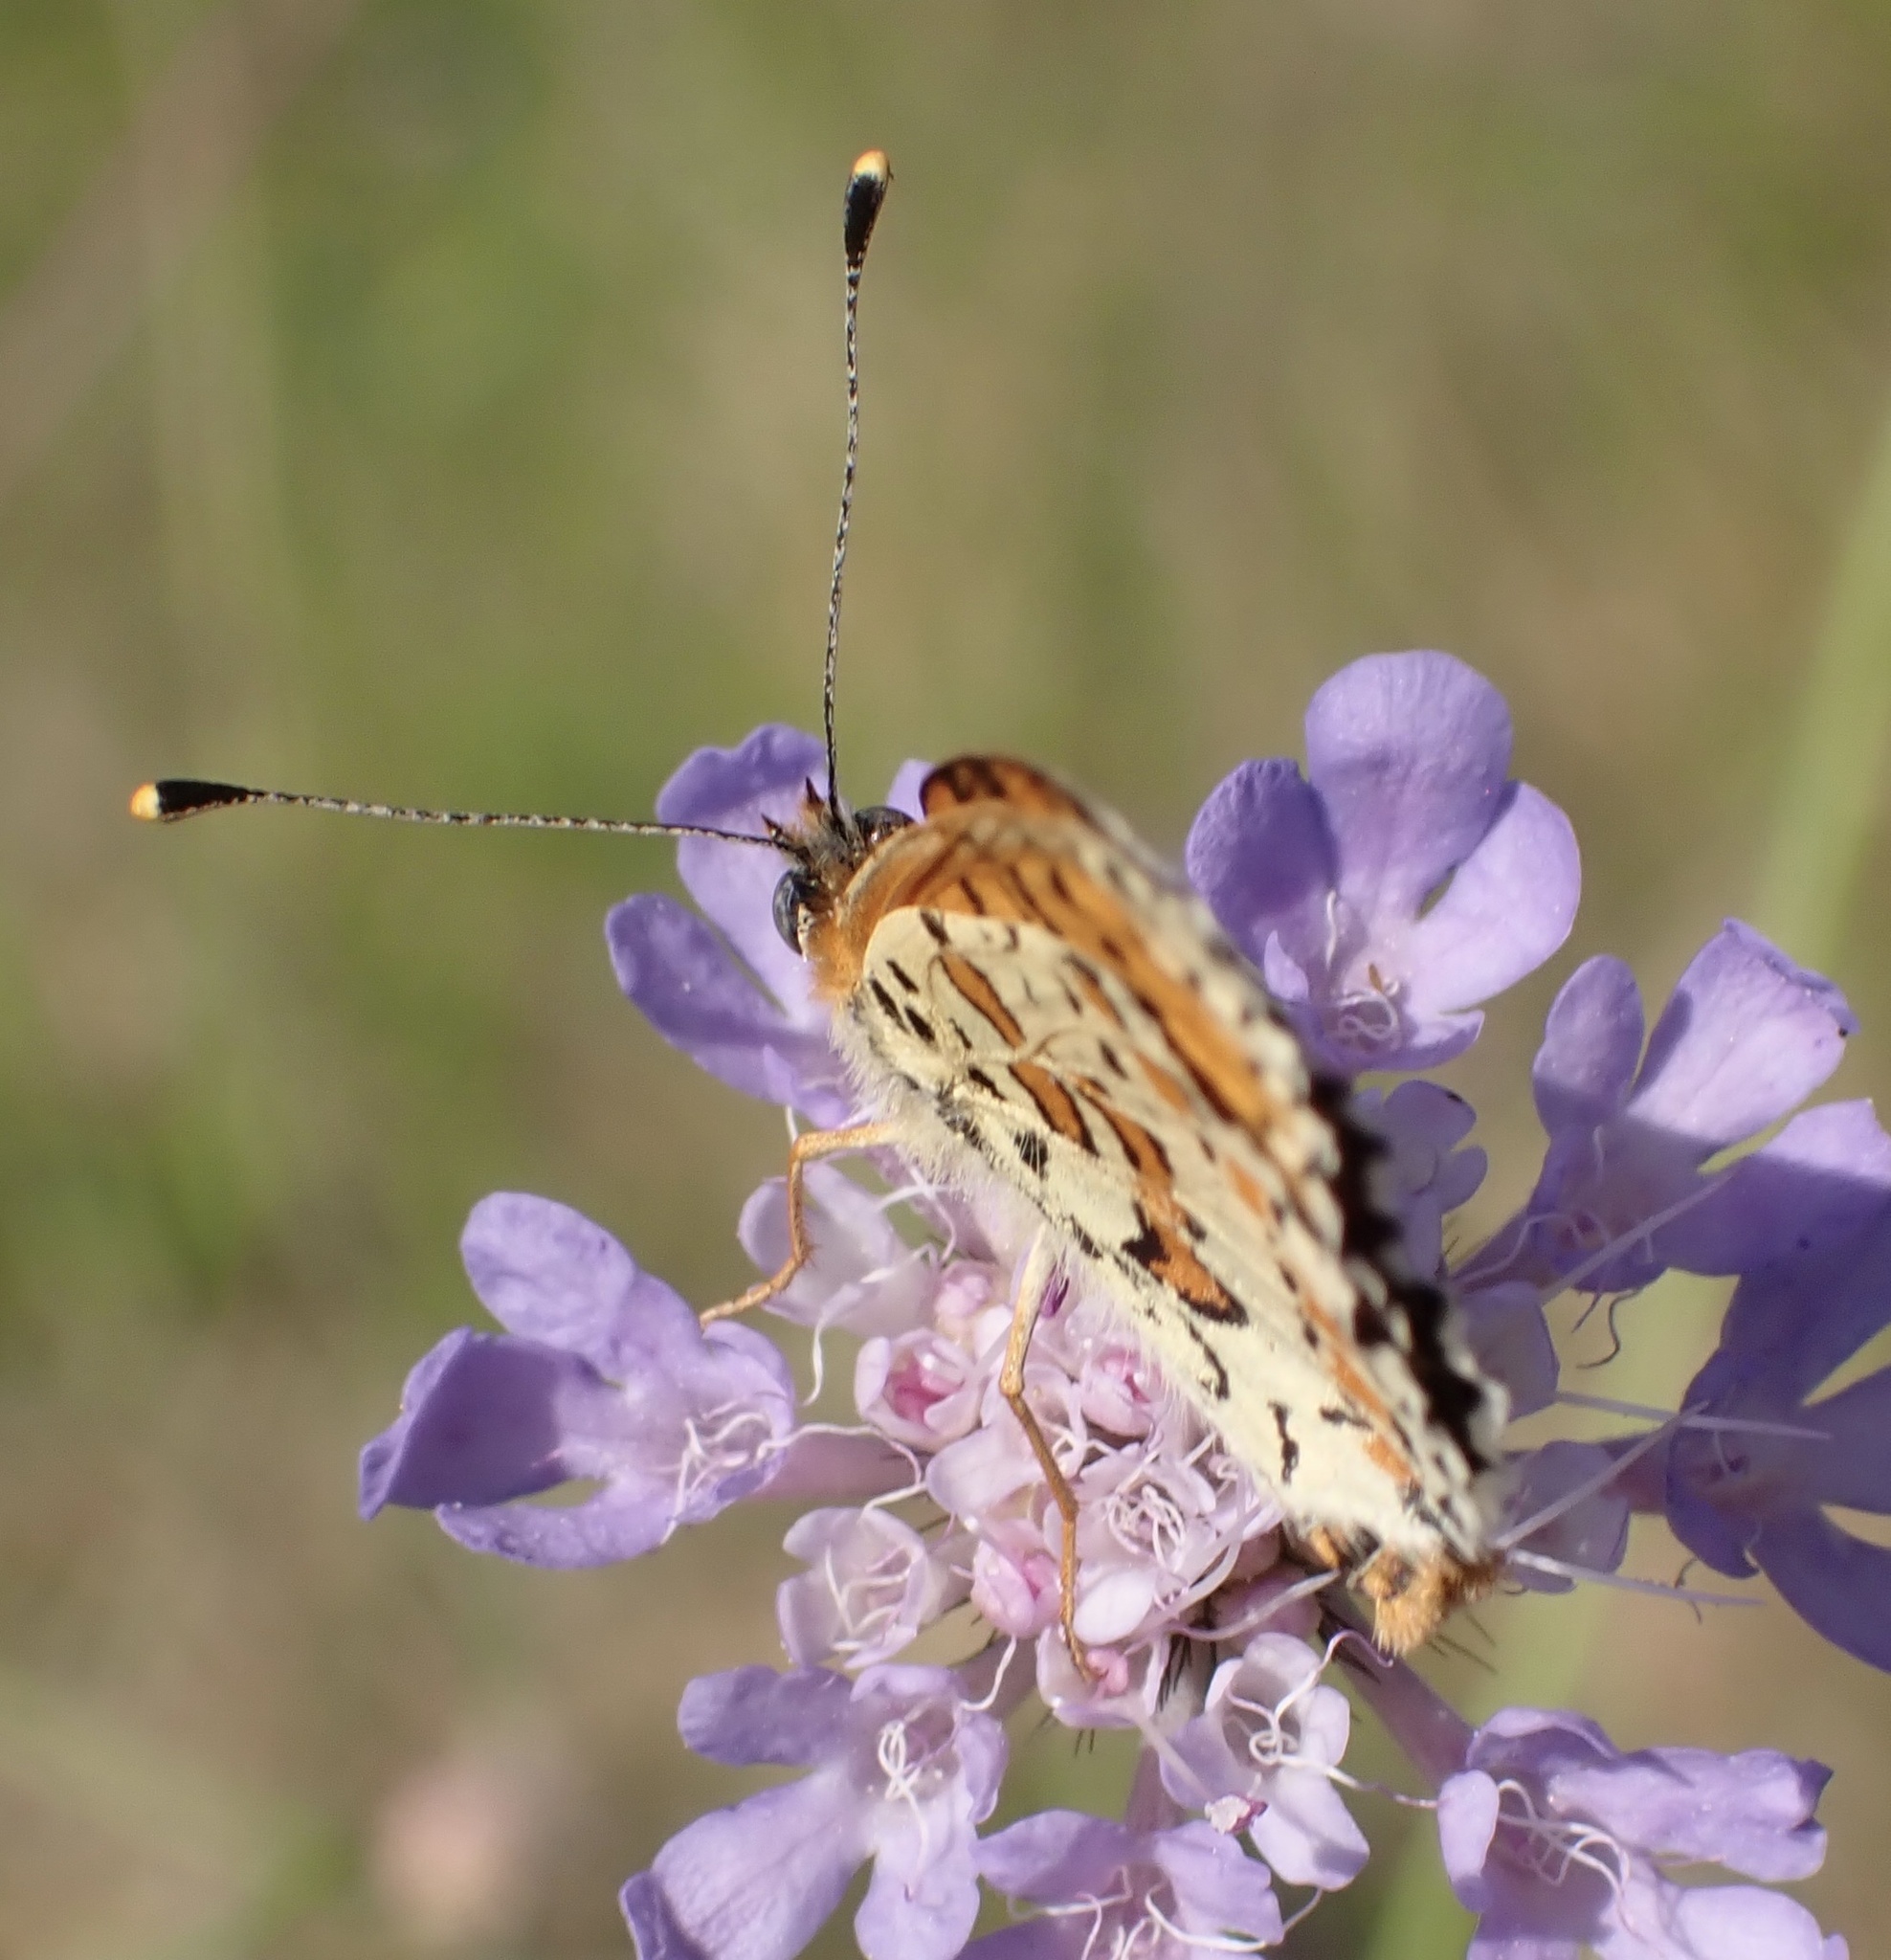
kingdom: Animalia
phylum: Arthropoda
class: Insecta
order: Lepidoptera
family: Nymphalidae
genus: Melitaea
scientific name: Melitaea didyma
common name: Spotted fritillary
